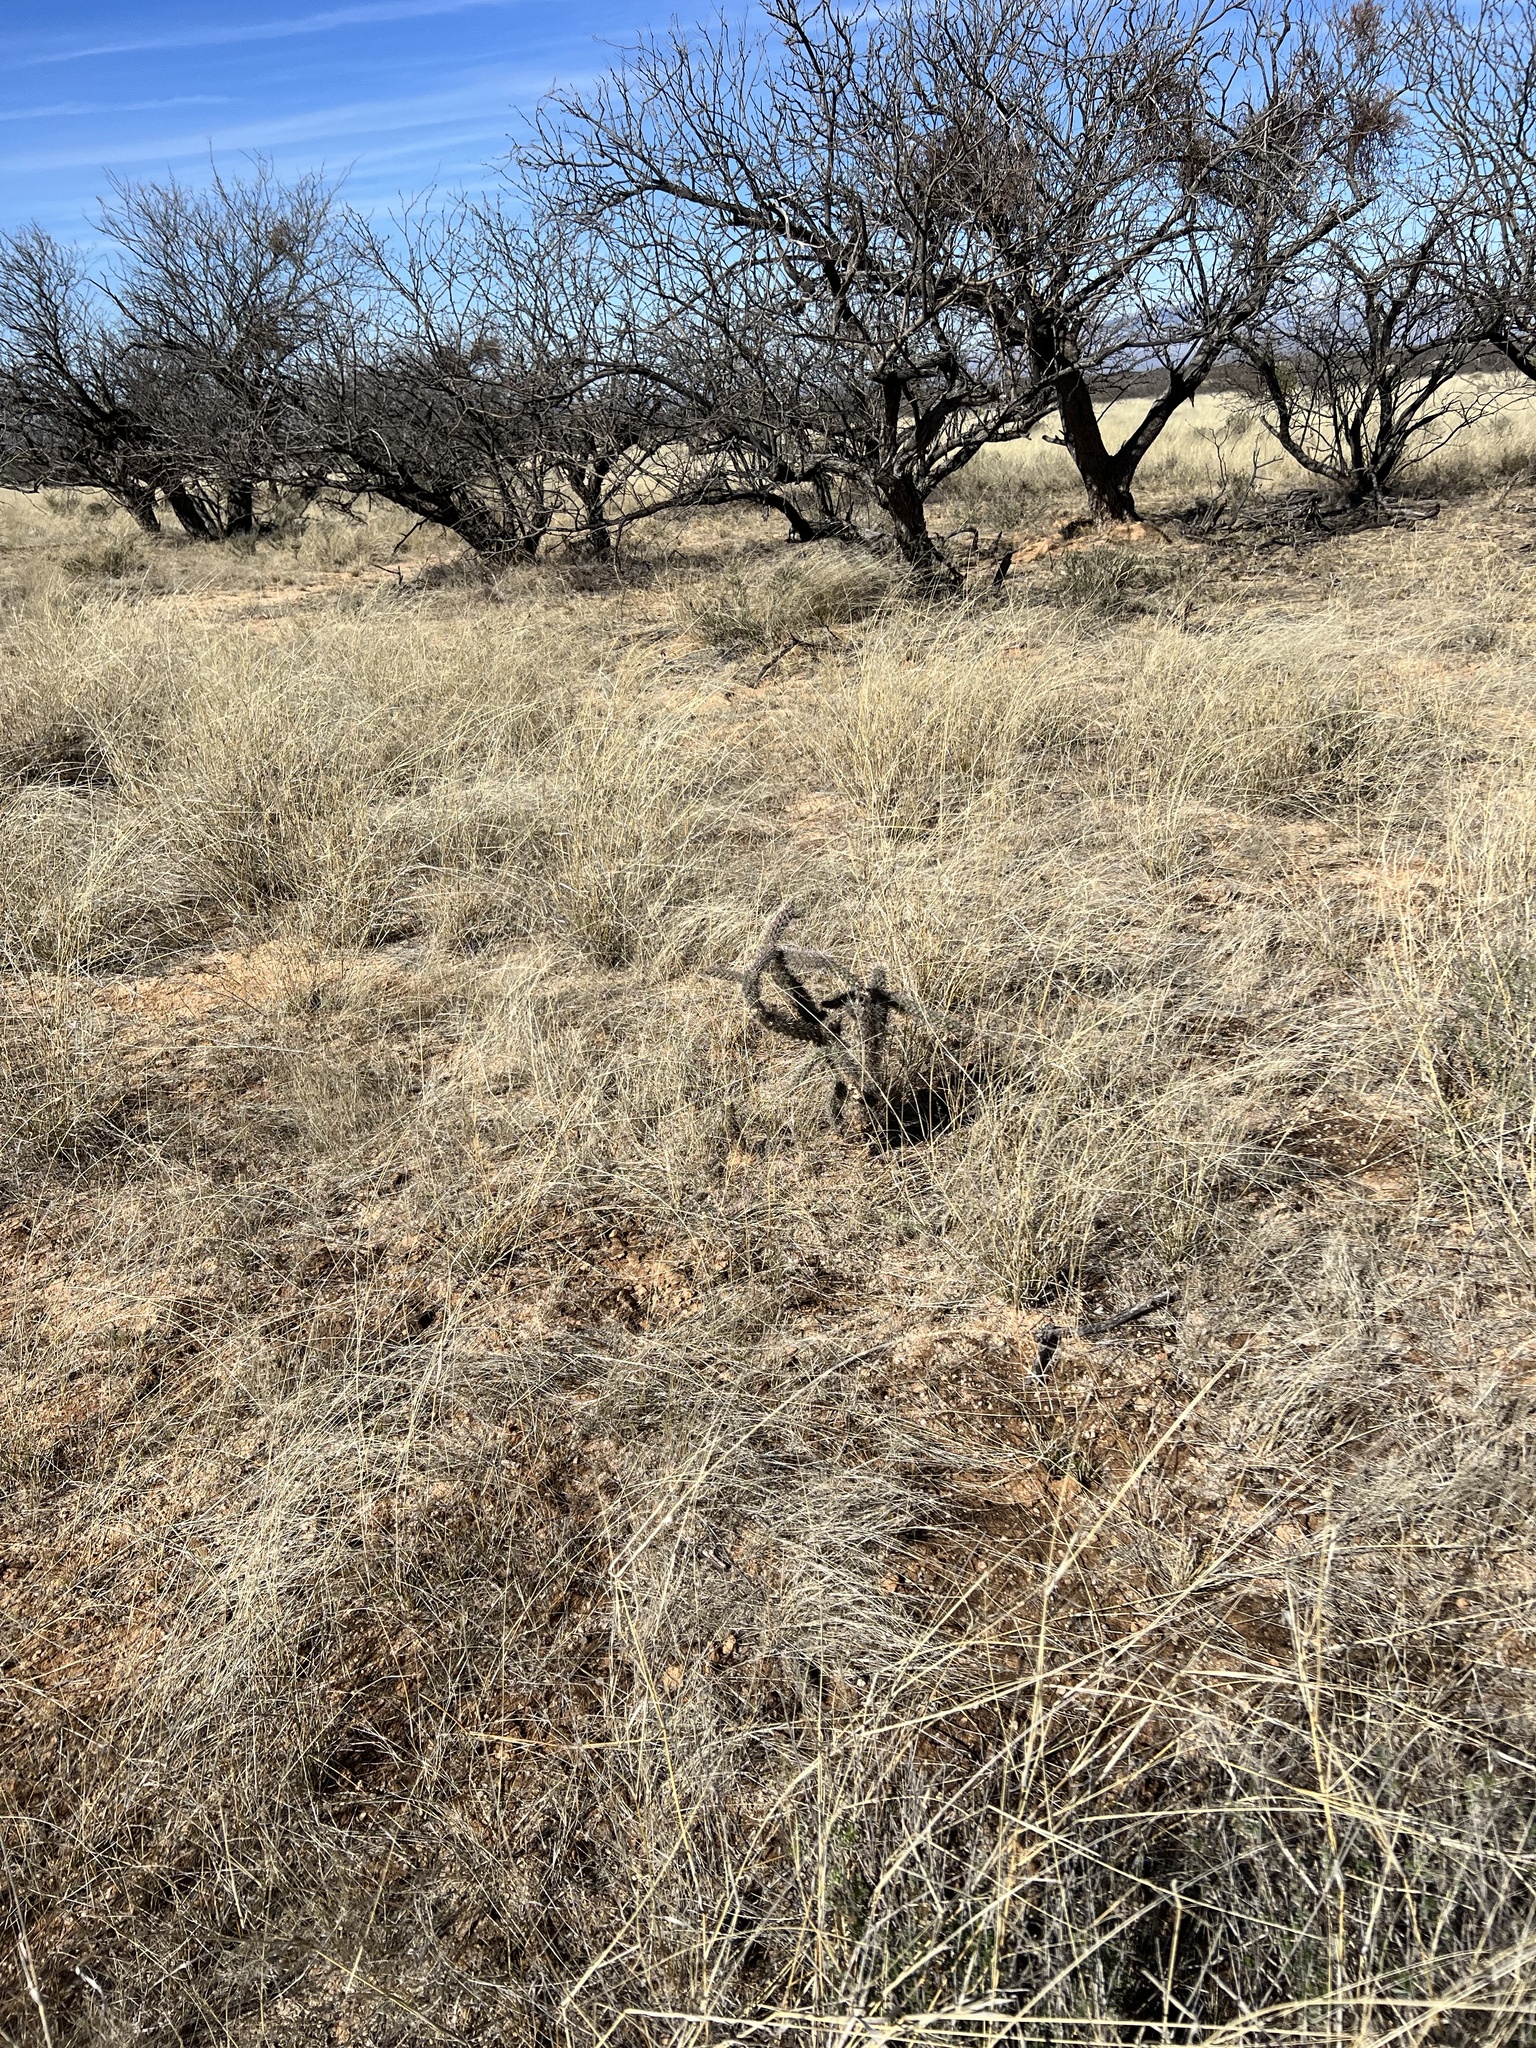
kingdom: Plantae
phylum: Tracheophyta
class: Magnoliopsida
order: Caryophyllales
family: Cactaceae
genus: Cylindropuntia
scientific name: Cylindropuntia imbricata
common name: Candelabrum cactus
